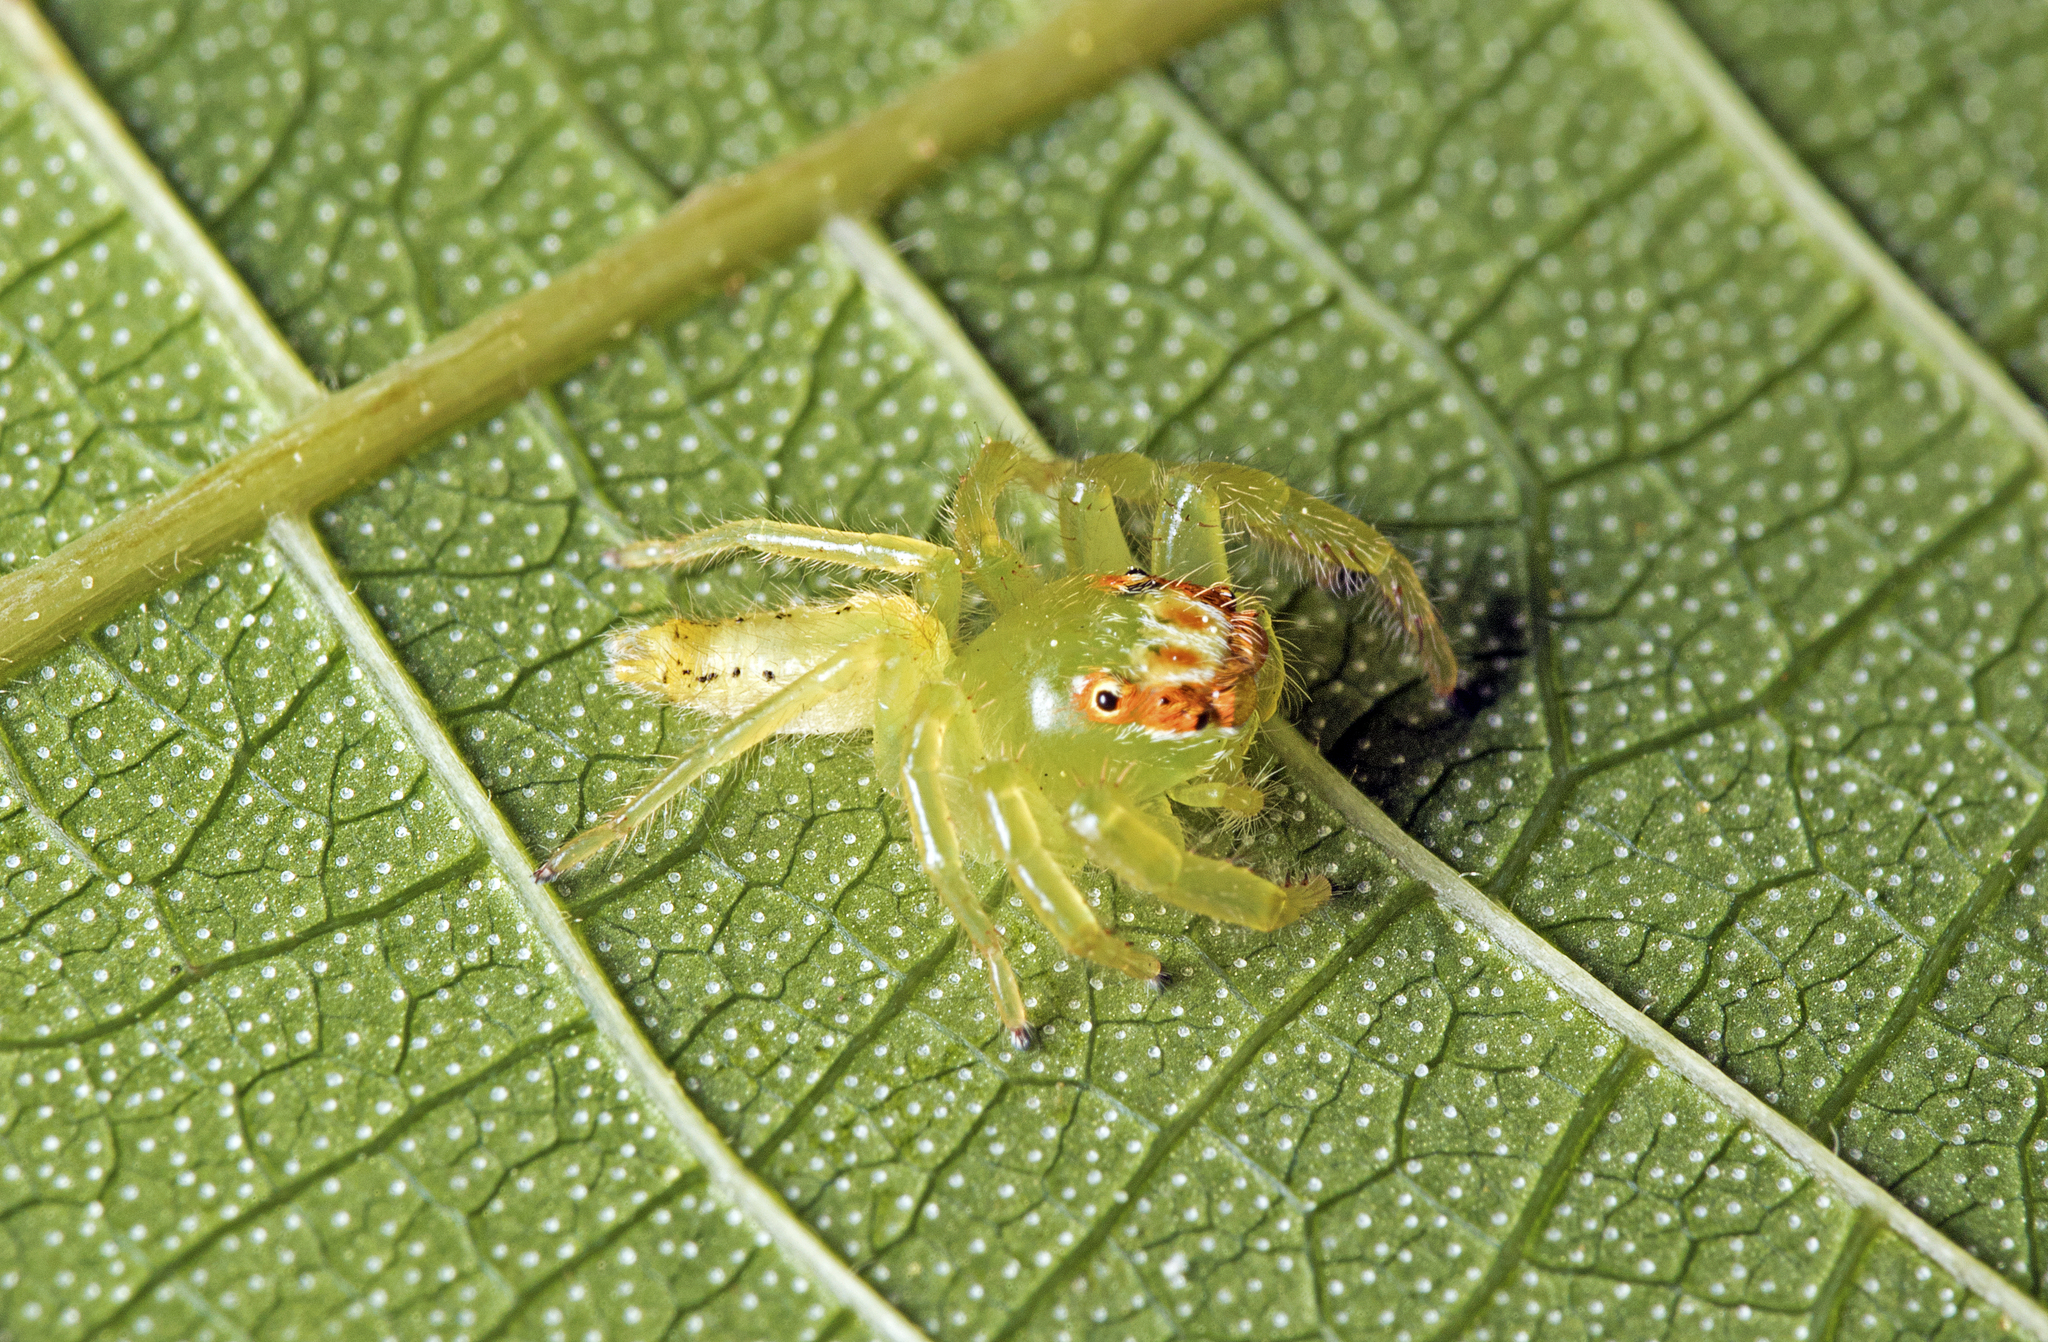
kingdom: Animalia
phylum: Arthropoda
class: Arachnida
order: Araneae
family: Salticidae
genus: Mopsus
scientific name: Mopsus mormon
